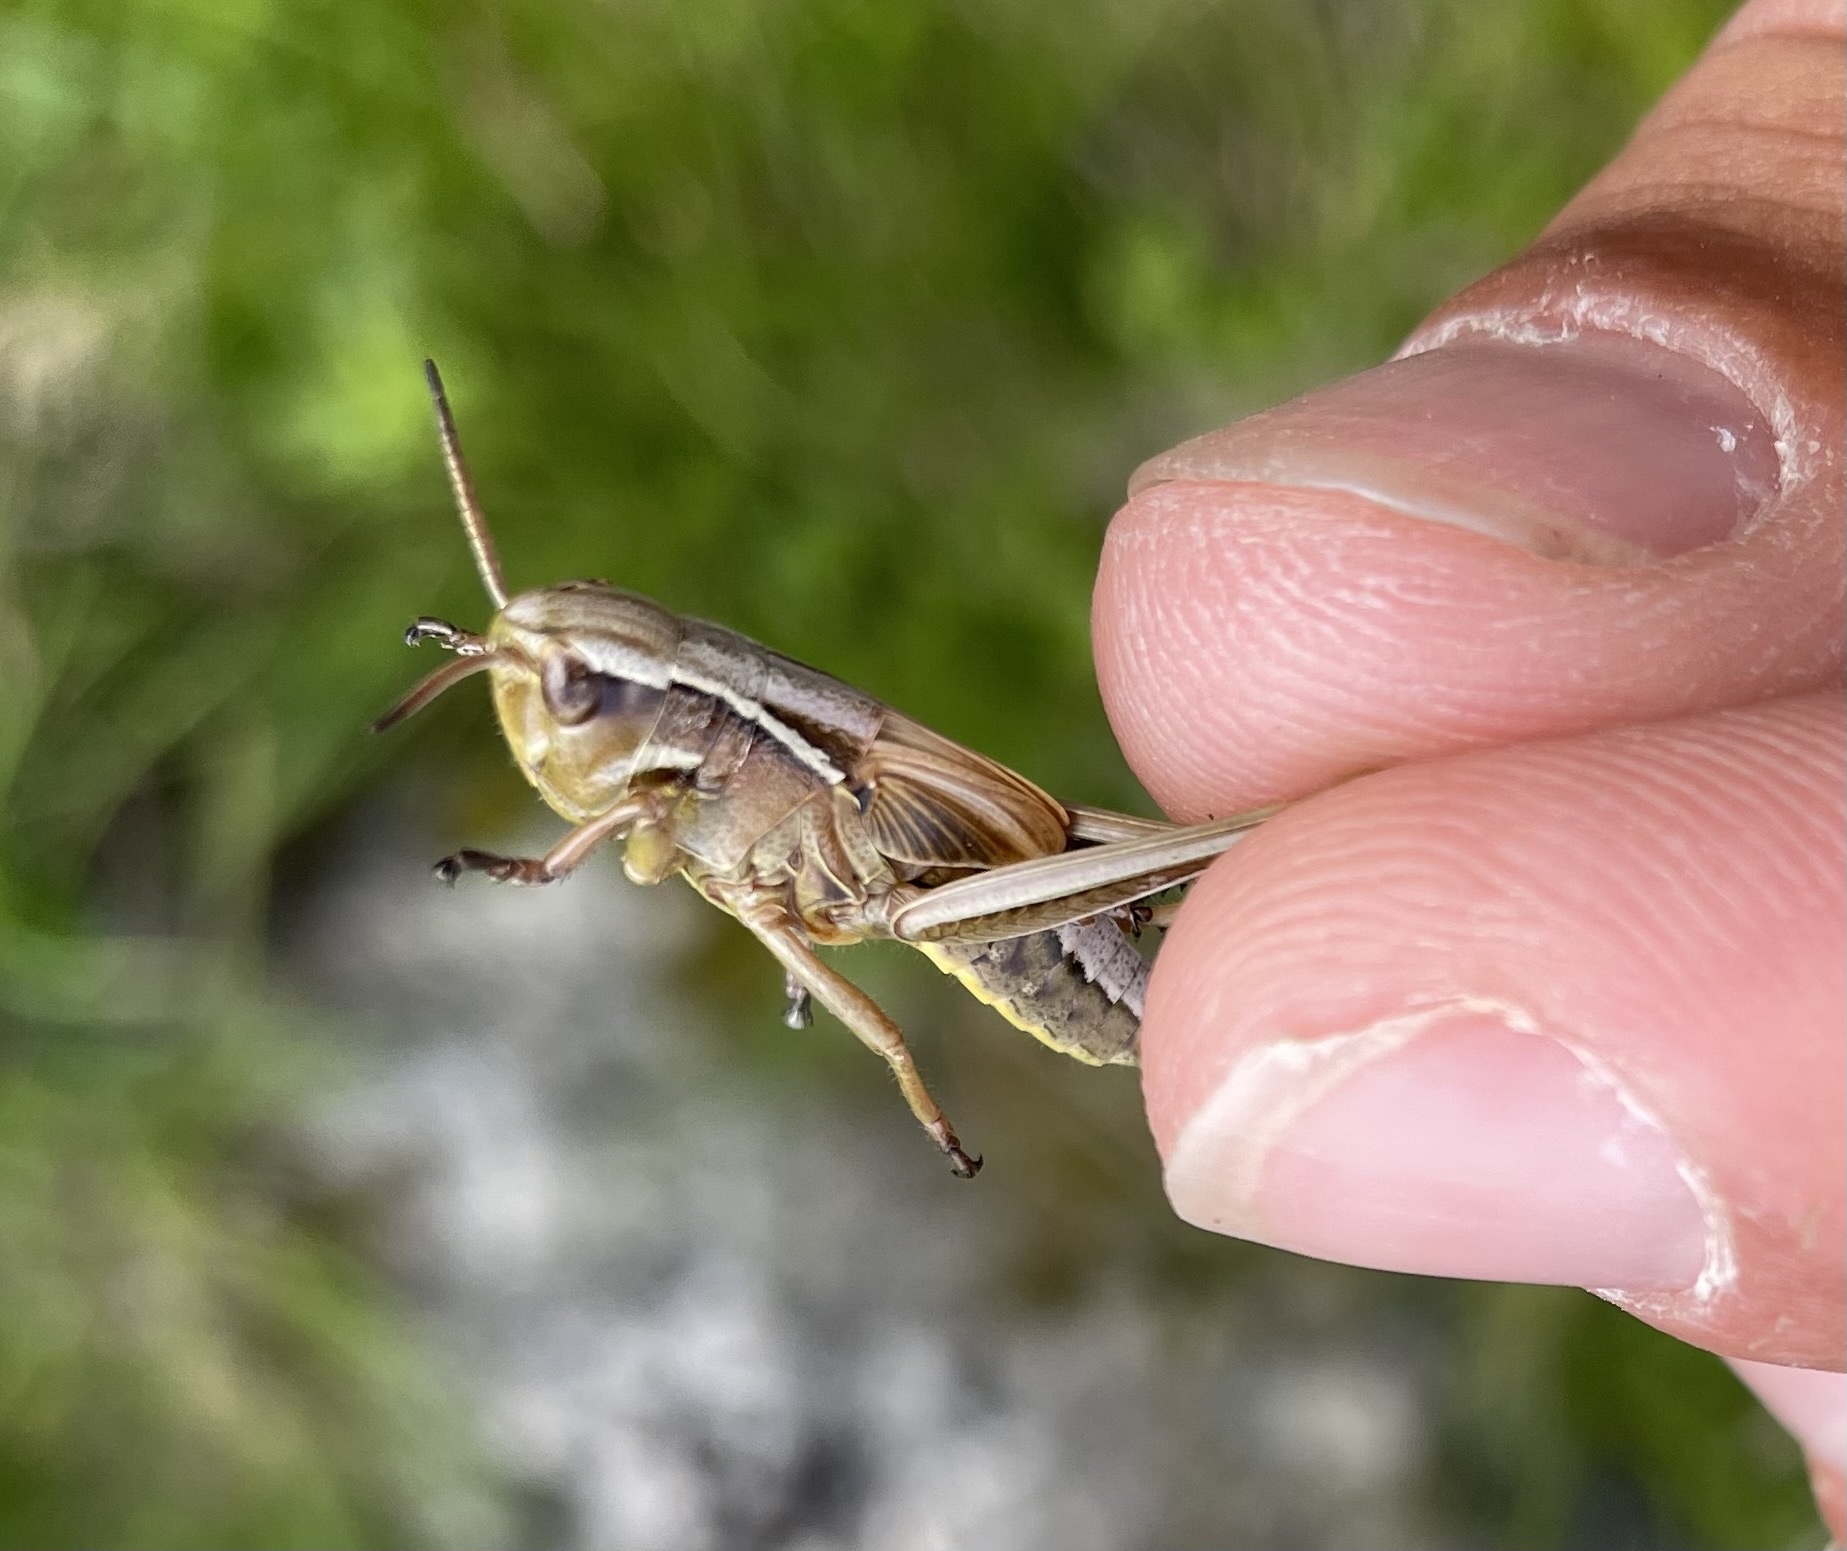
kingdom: Animalia
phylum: Arthropoda
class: Insecta
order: Orthoptera
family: Acrididae
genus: Stethophyma
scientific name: Stethophyma grossum
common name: Large marsh grasshopper
